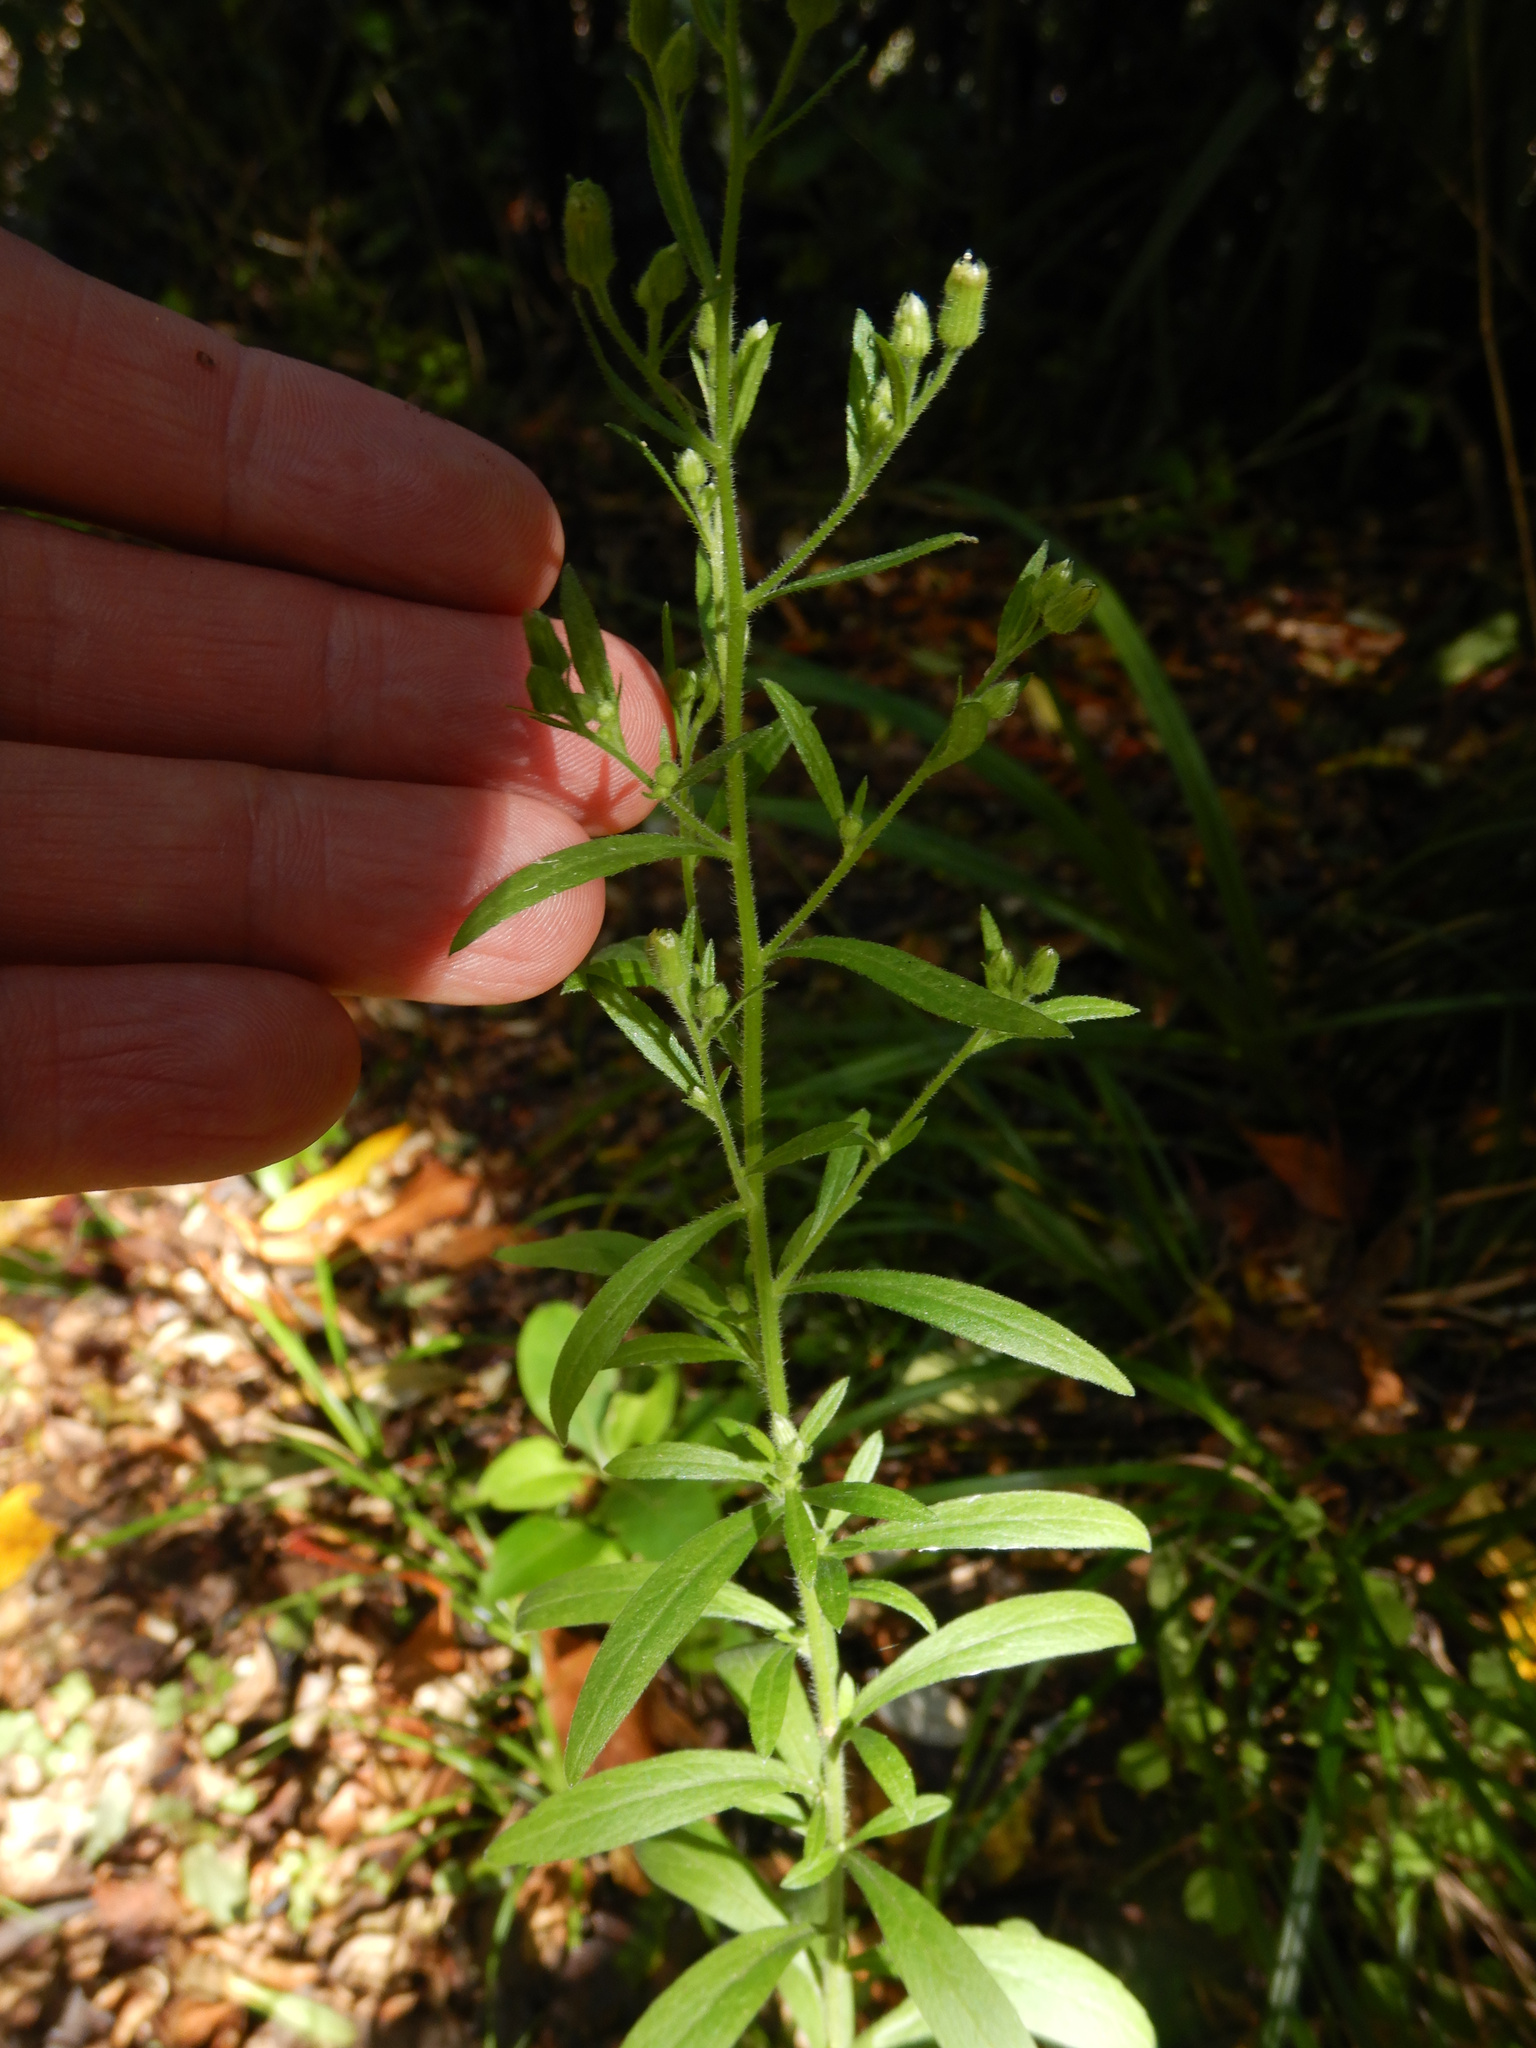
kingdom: Plantae
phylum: Tracheophyta
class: Magnoliopsida
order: Asterales
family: Asteraceae
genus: Erigeron
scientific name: Erigeron sumatrensis
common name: Daisy
